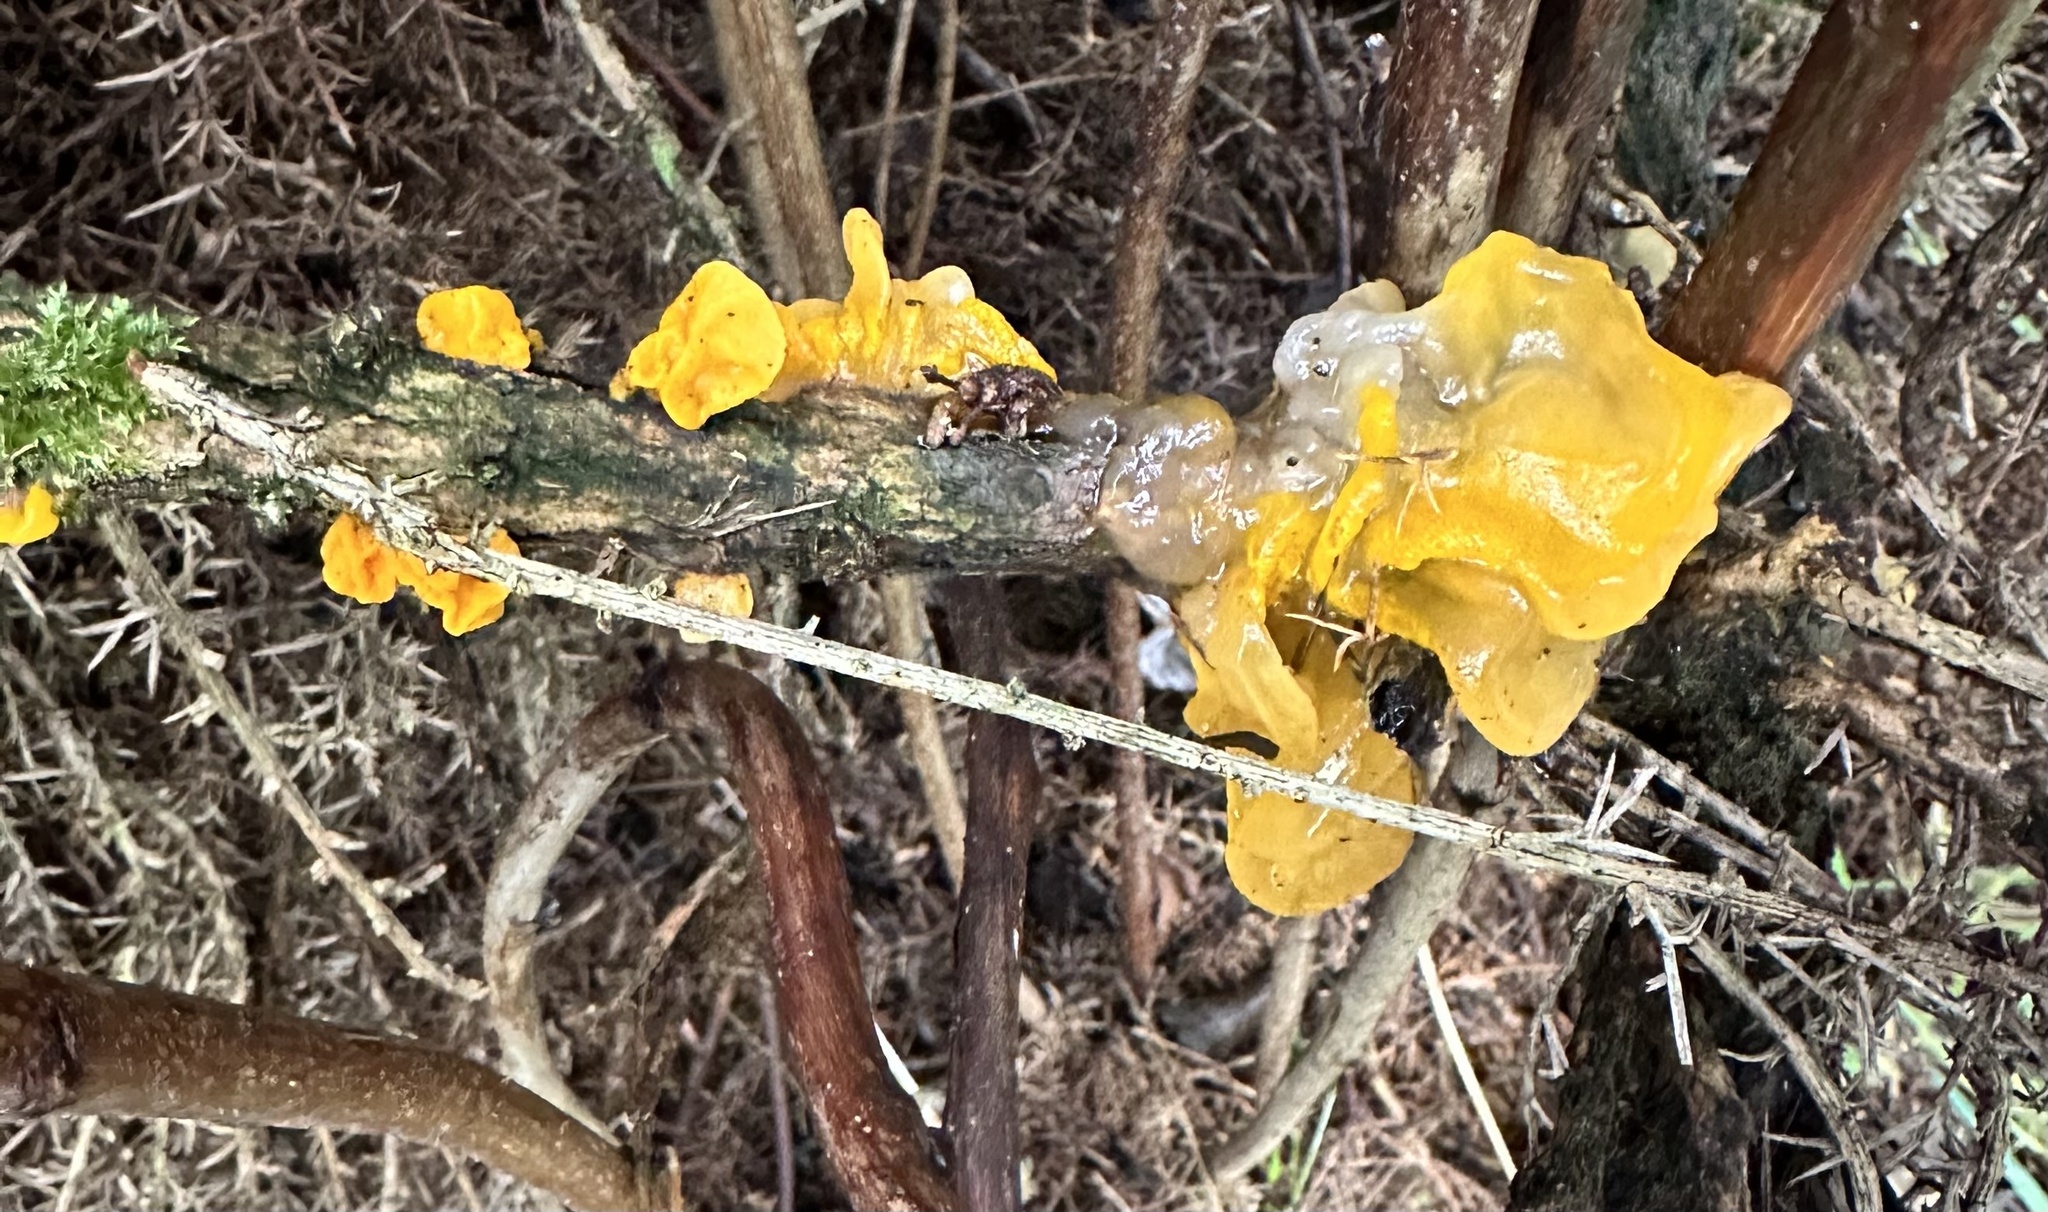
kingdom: Fungi
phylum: Basidiomycota
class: Tremellomycetes
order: Tremellales
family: Tremellaceae
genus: Tremella
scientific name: Tremella mesenterica
